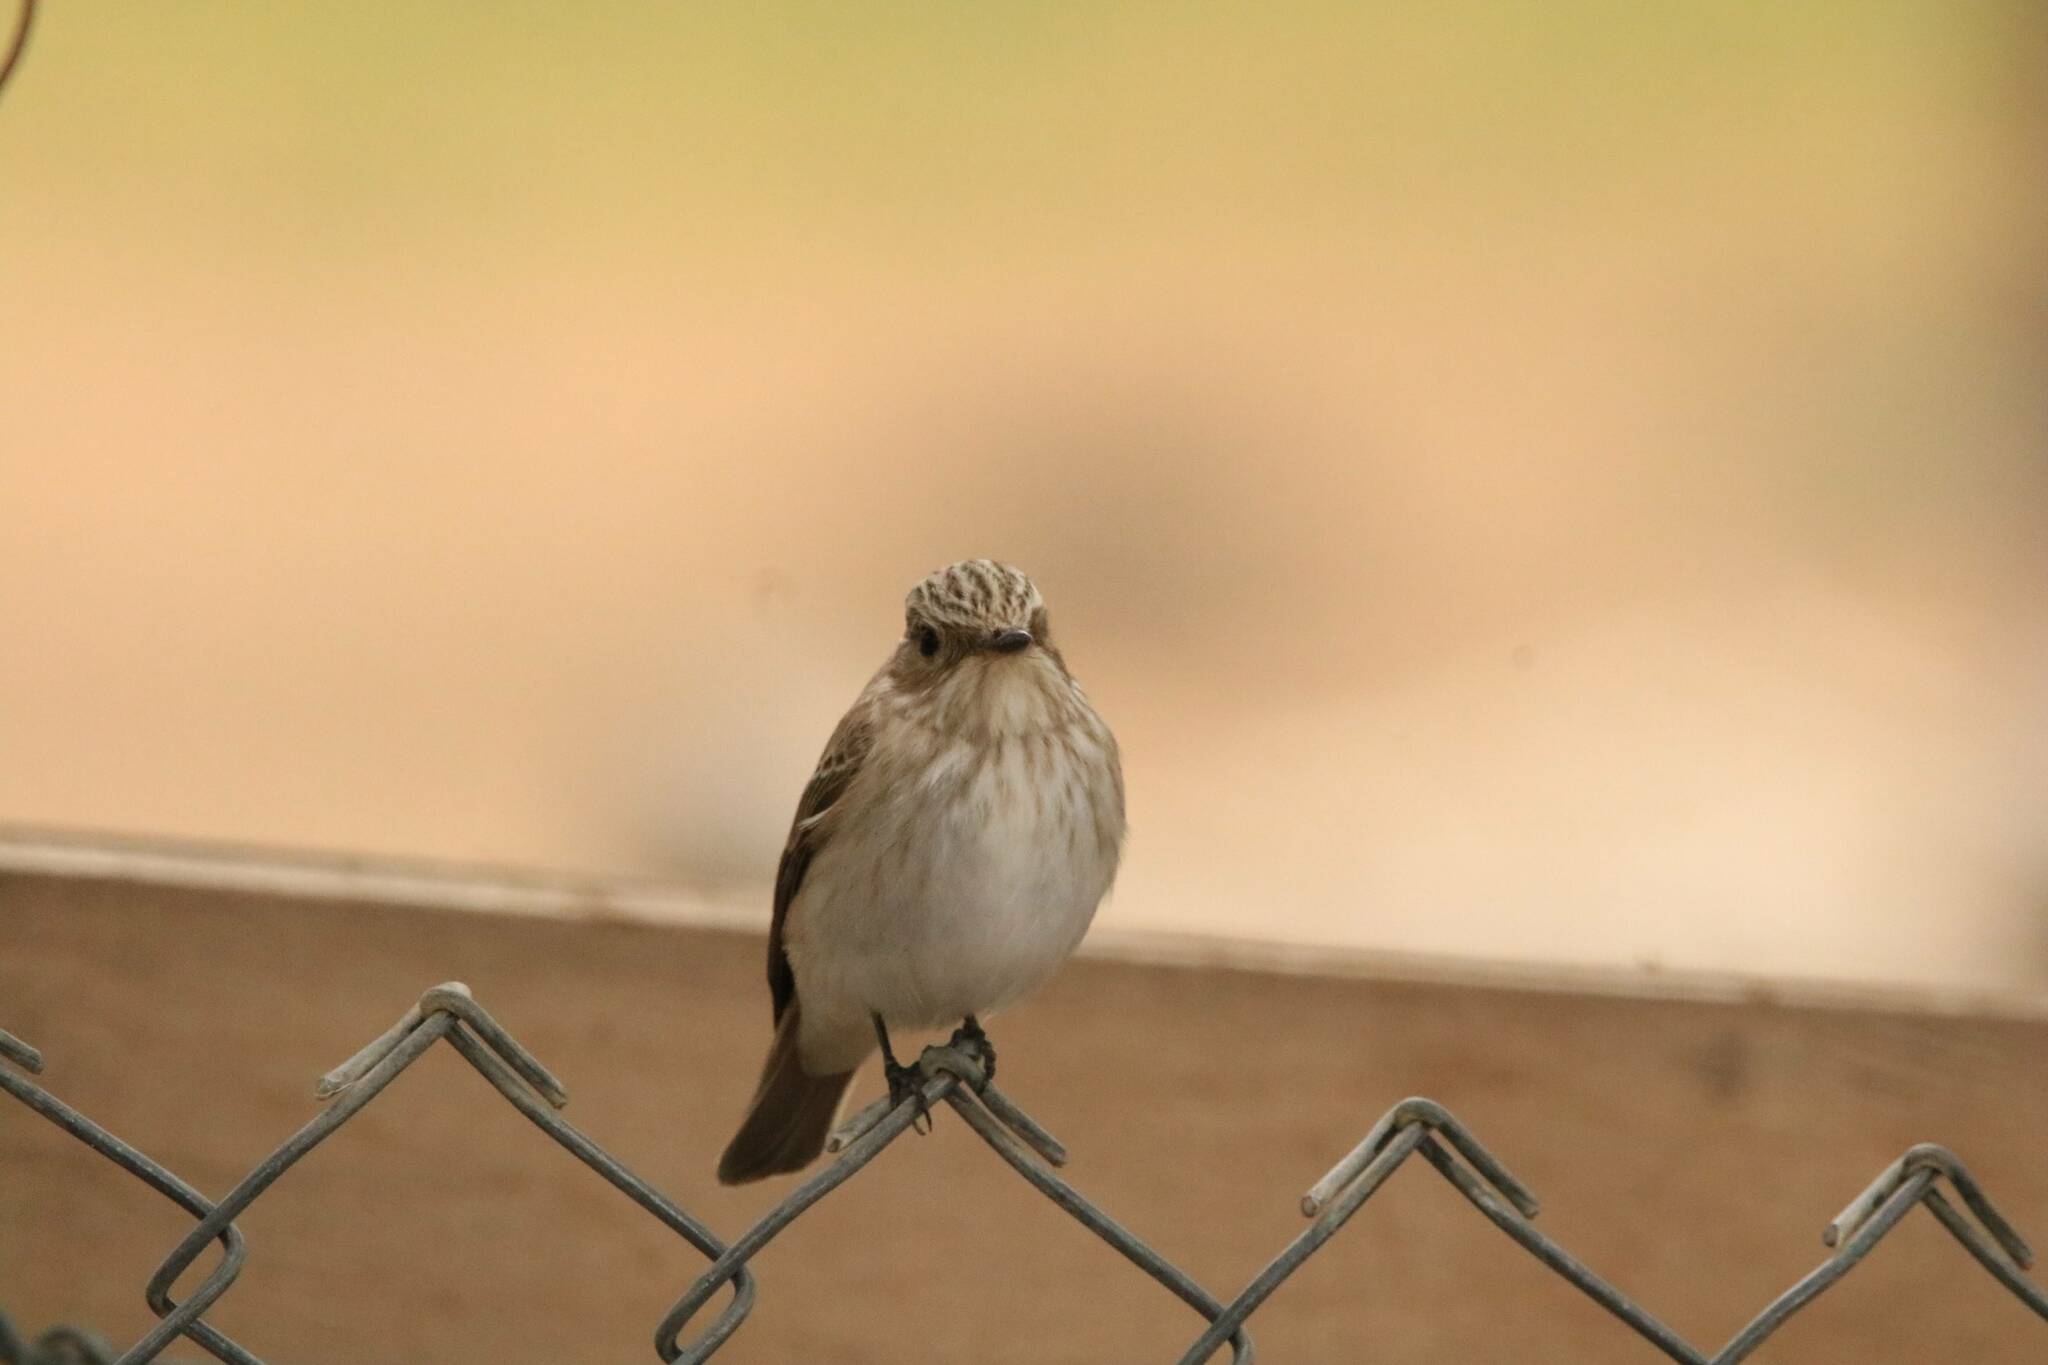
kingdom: Animalia
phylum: Chordata
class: Aves
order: Passeriformes
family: Muscicapidae
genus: Muscicapa
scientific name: Muscicapa striata
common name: Spotted flycatcher
